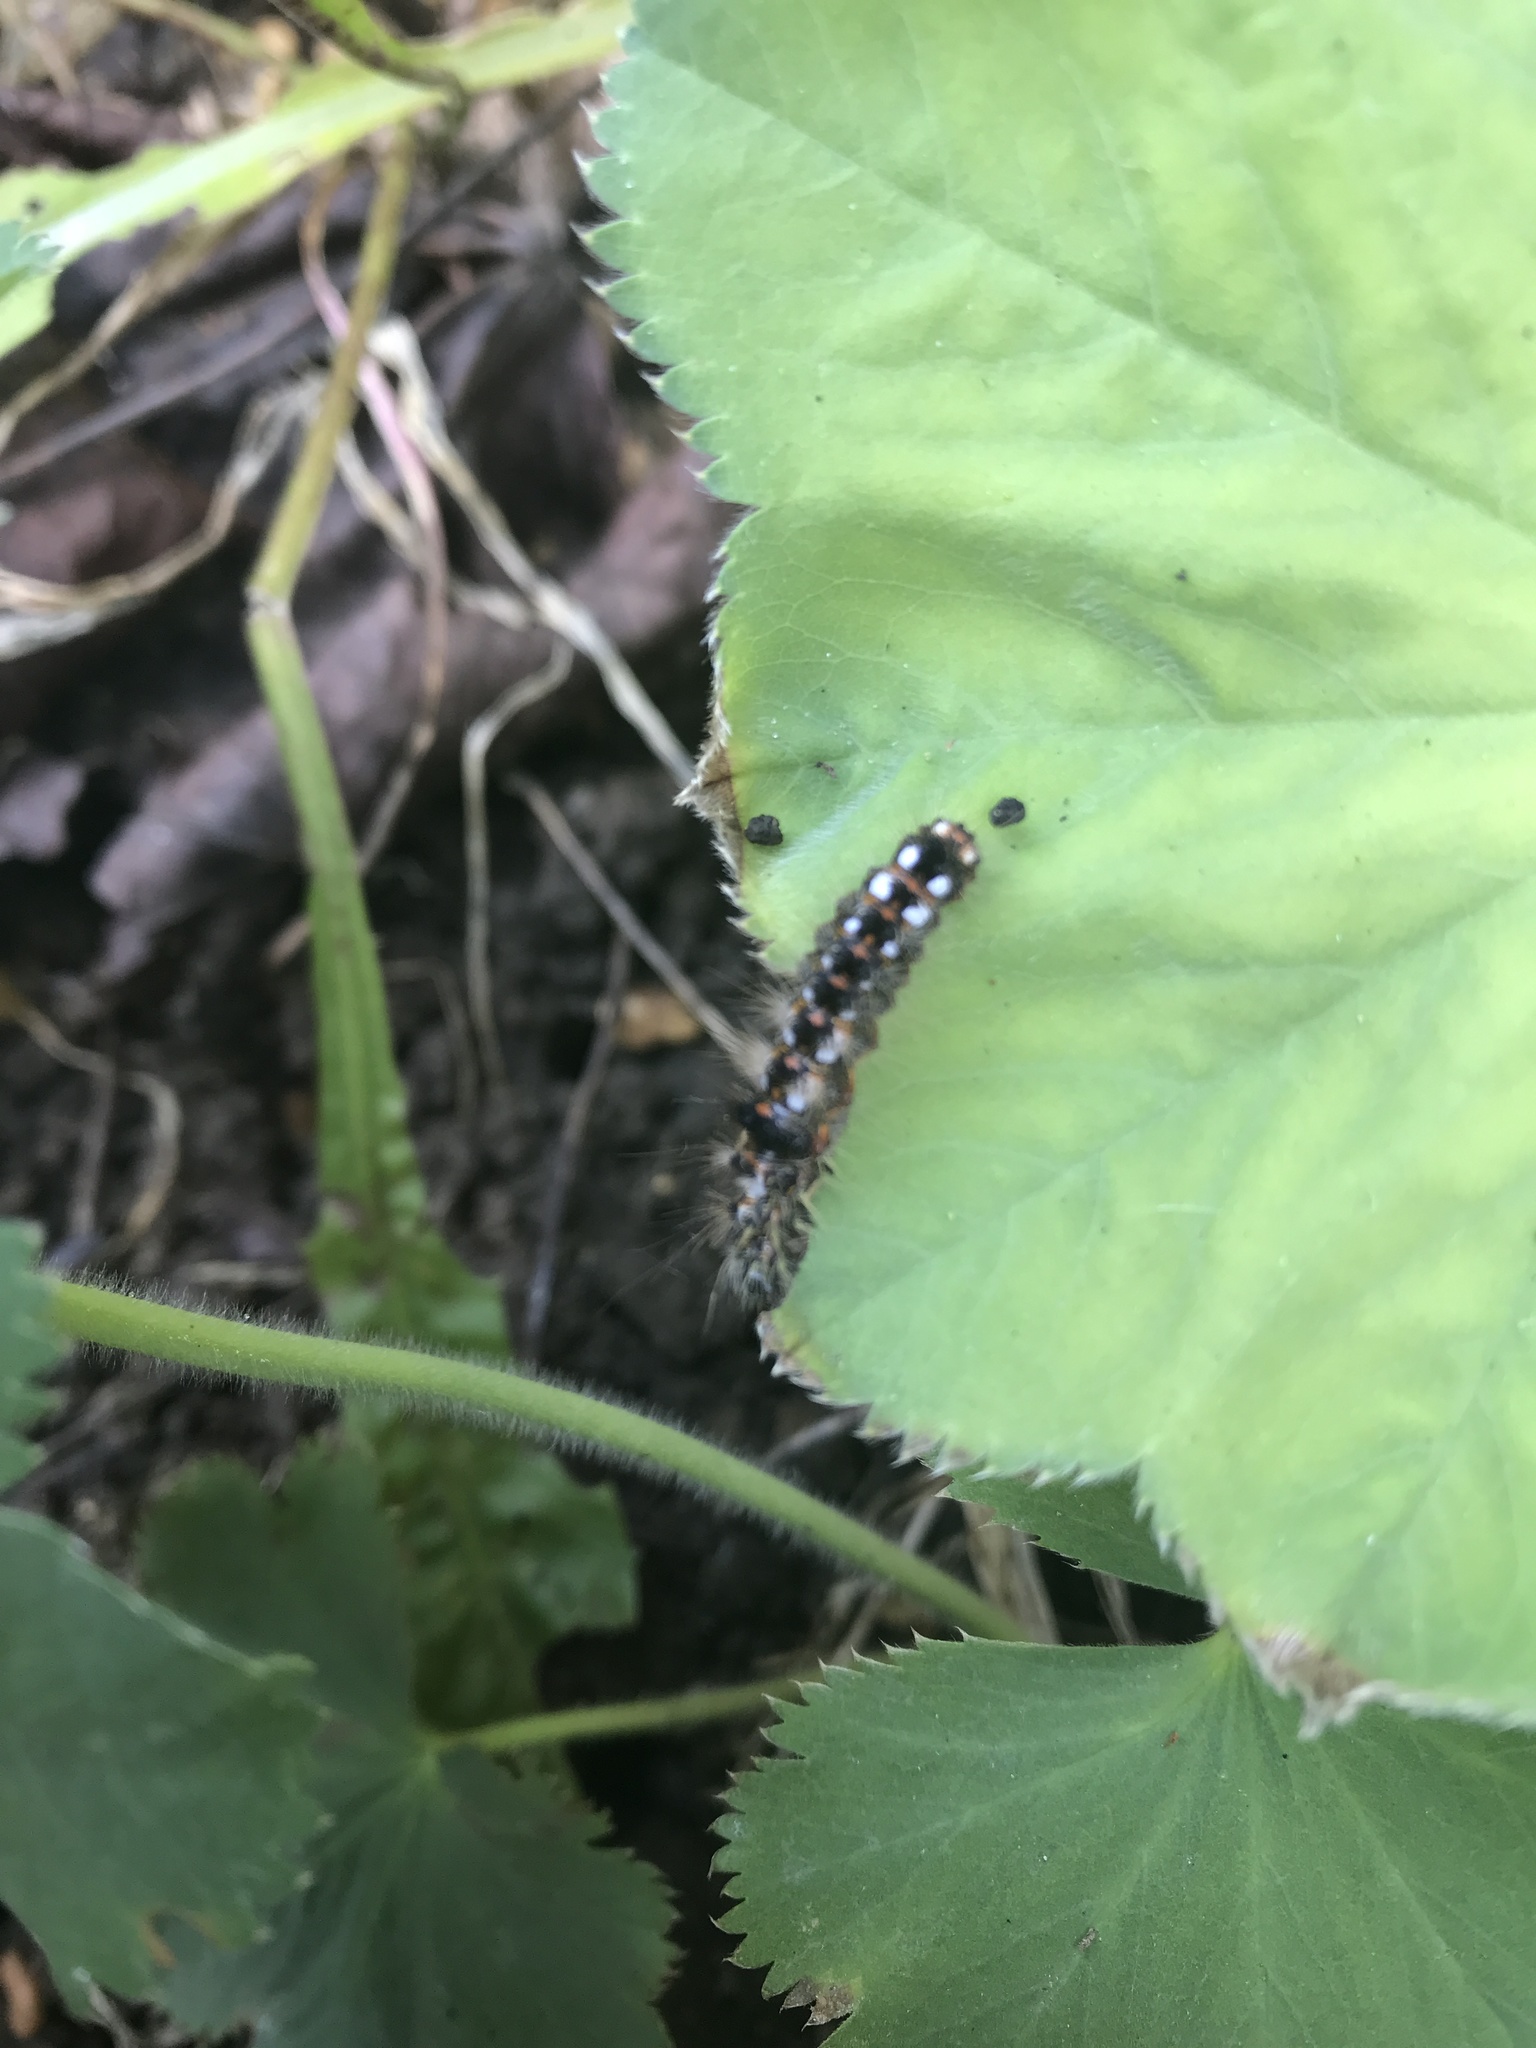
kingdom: Animalia
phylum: Arthropoda
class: Insecta
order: Lepidoptera
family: Noctuidae
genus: Acronicta
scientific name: Acronicta rumicis
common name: Knot grass
